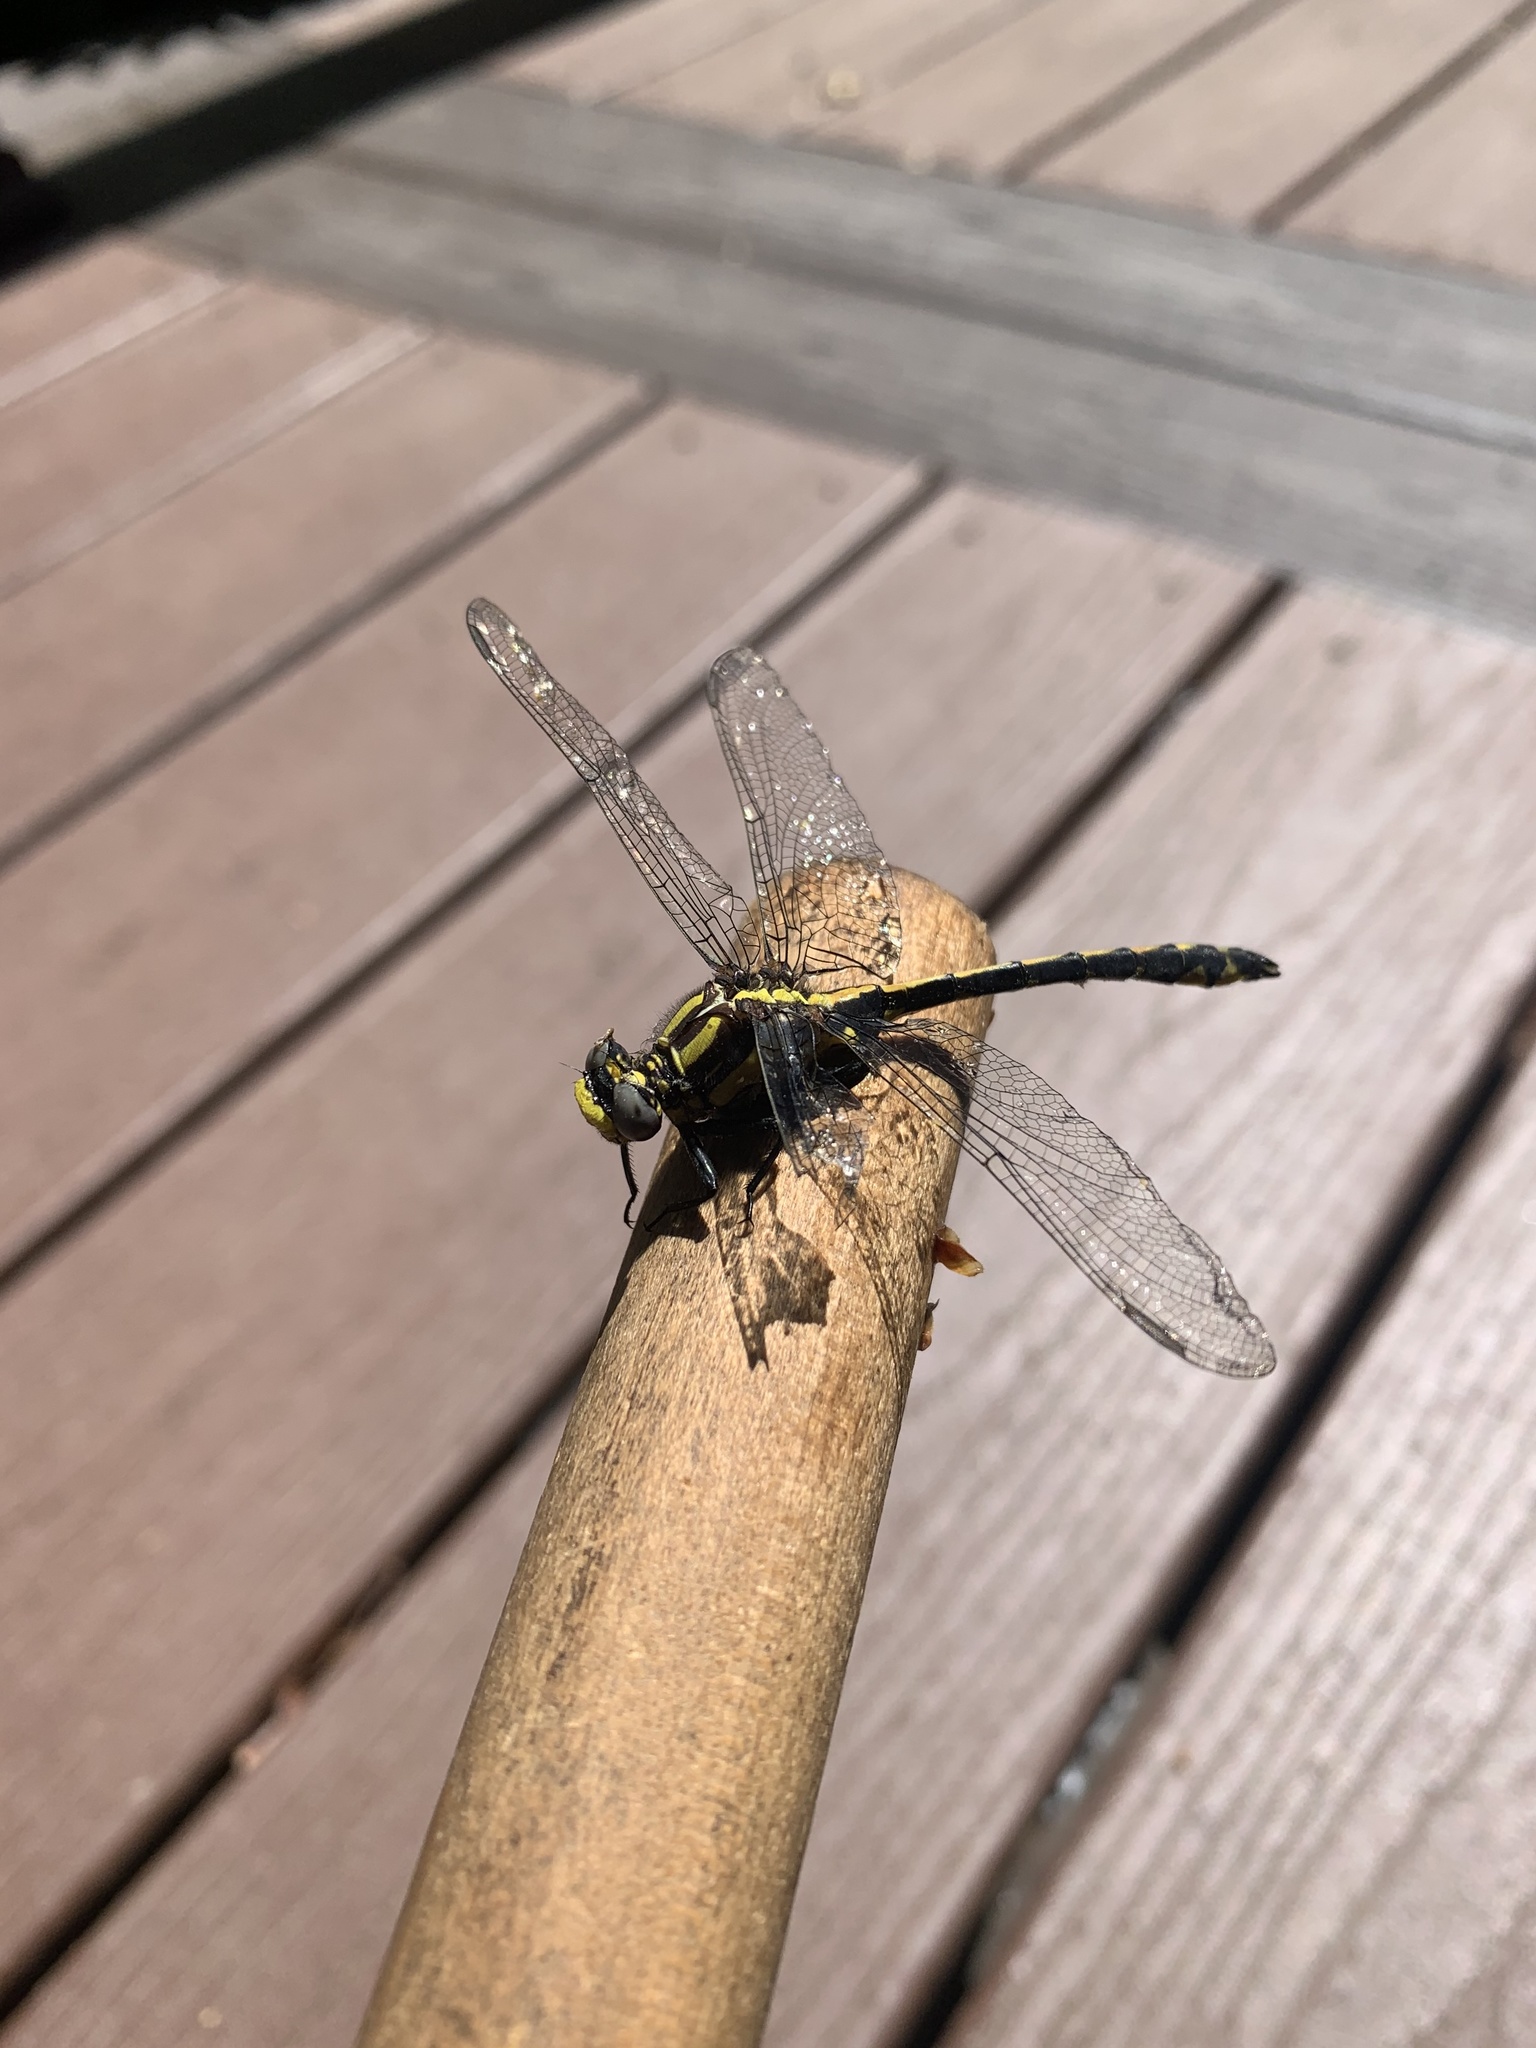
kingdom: Animalia
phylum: Arthropoda
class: Insecta
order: Odonata
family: Gomphidae
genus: Phanogomphus
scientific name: Phanogomphus kurilis
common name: Pacific clubtail
